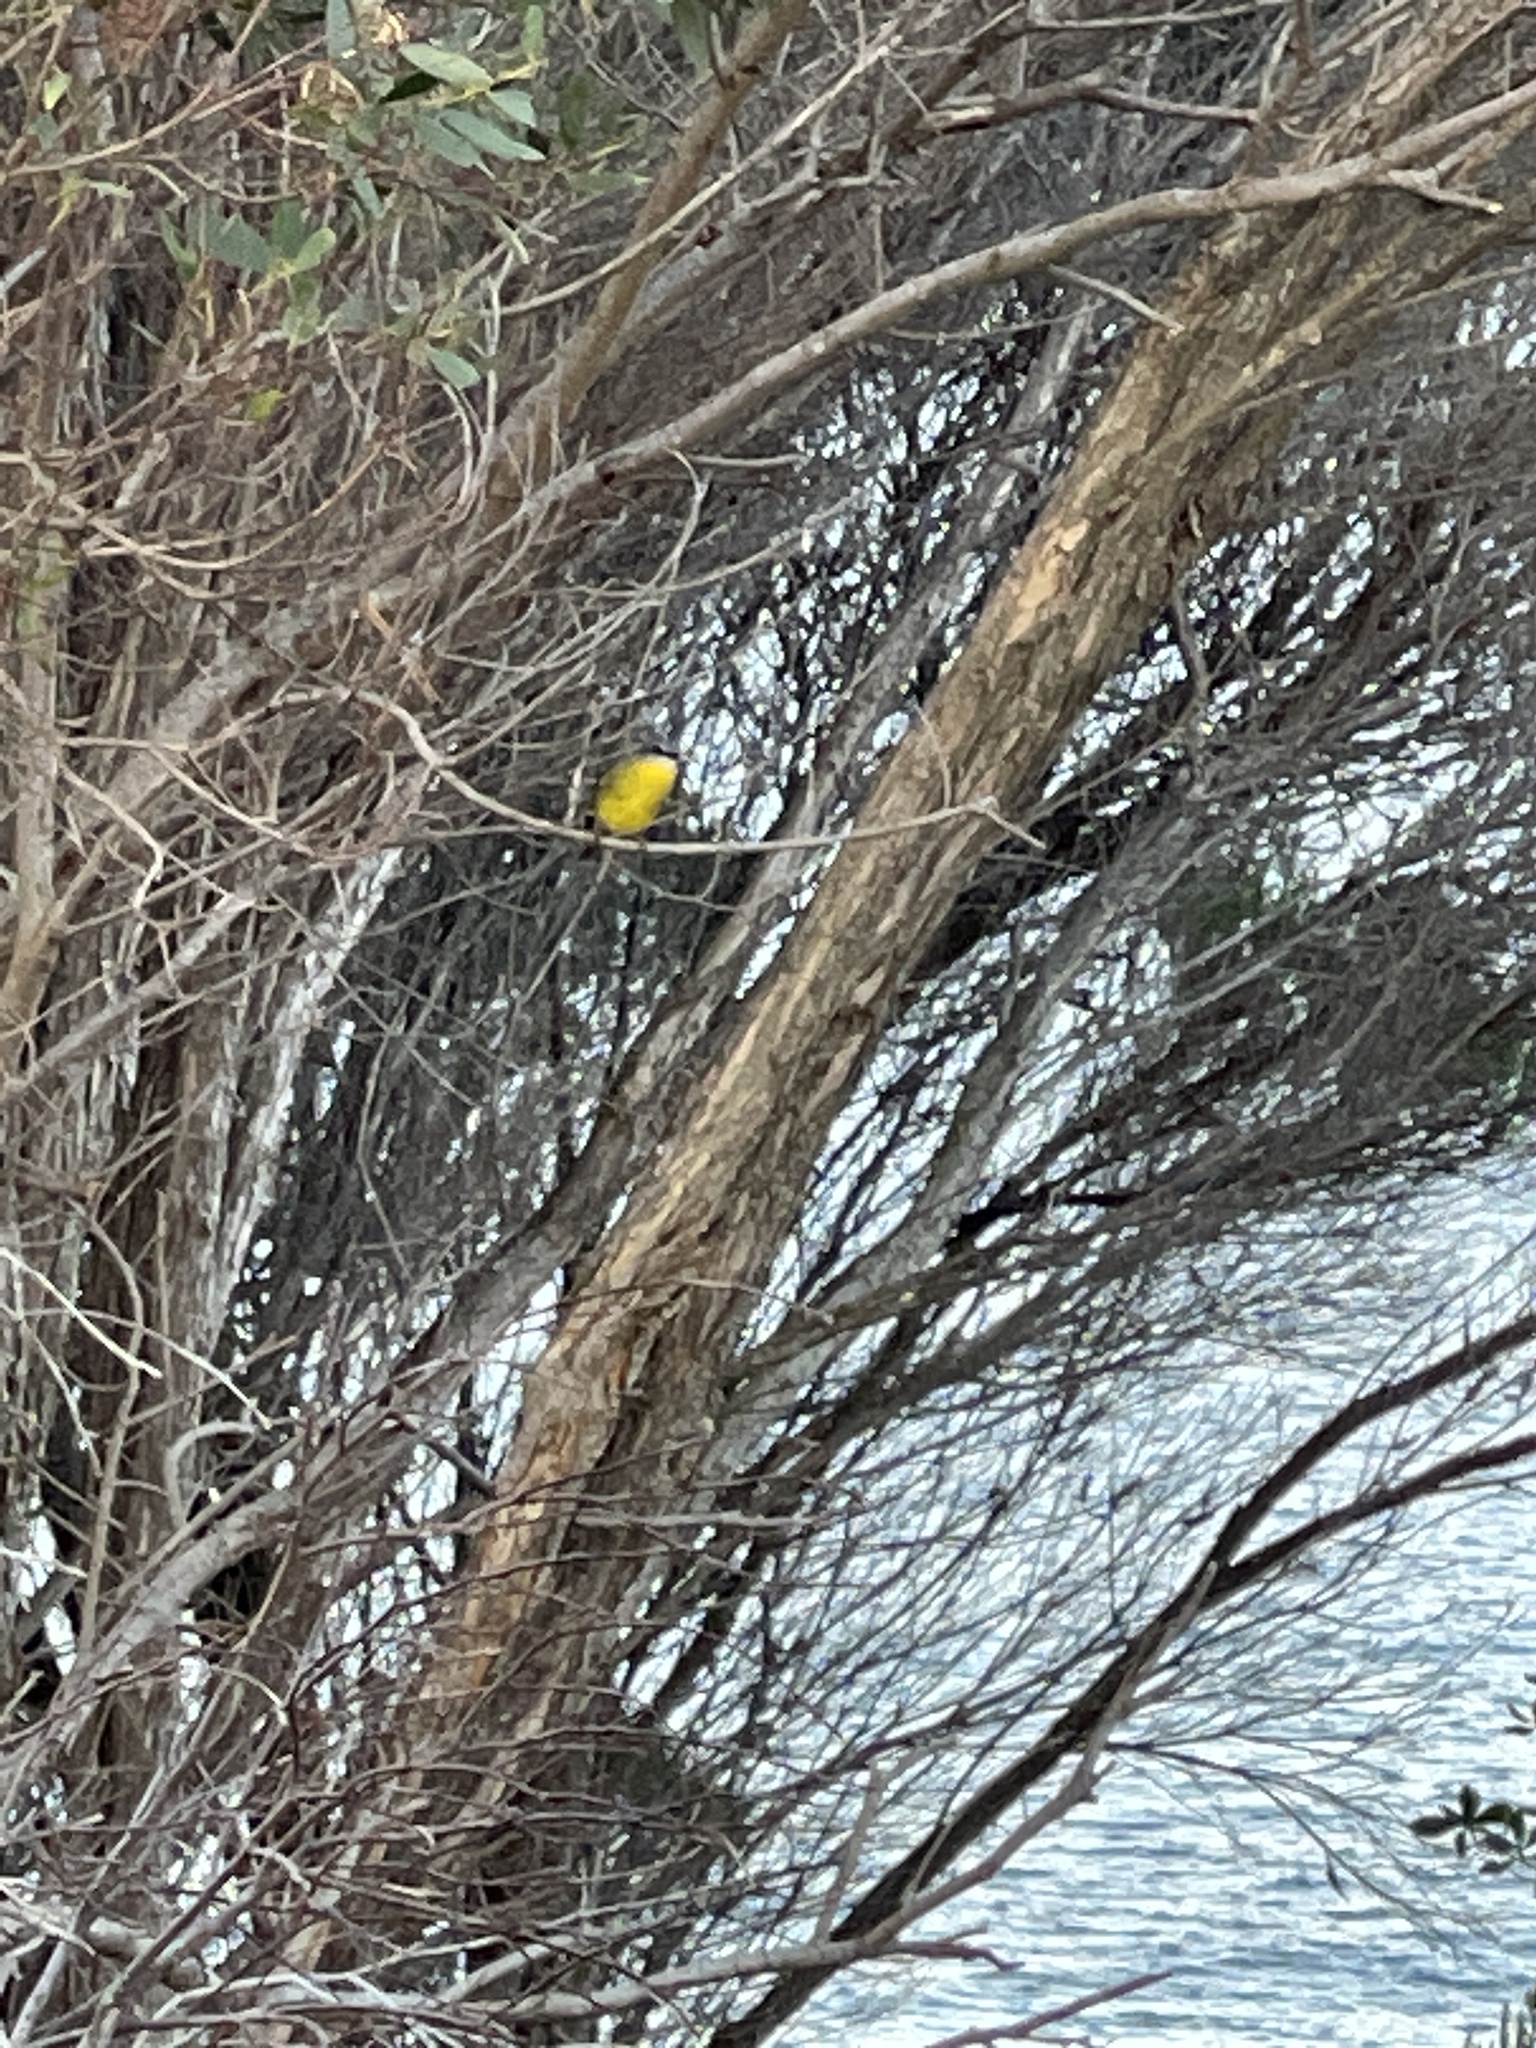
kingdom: Animalia
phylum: Chordata
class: Aves
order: Passeriformes
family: Petroicidae
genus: Eopsaltria
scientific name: Eopsaltria australis
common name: Eastern yellow robin
